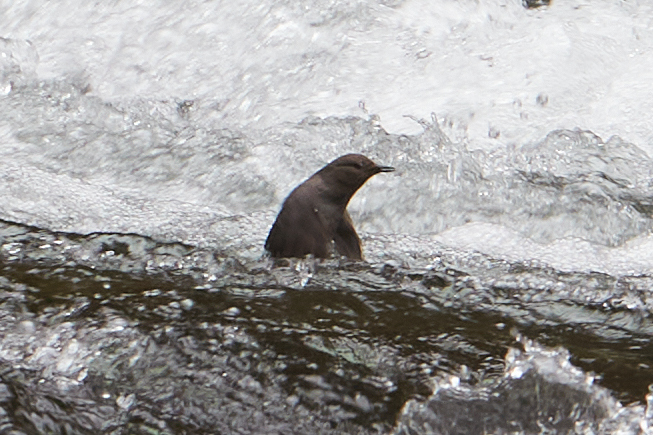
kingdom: Animalia
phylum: Chordata
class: Aves
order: Passeriformes
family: Cinclidae
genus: Cinclus
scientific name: Cinclus mexicanus
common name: American dipper
